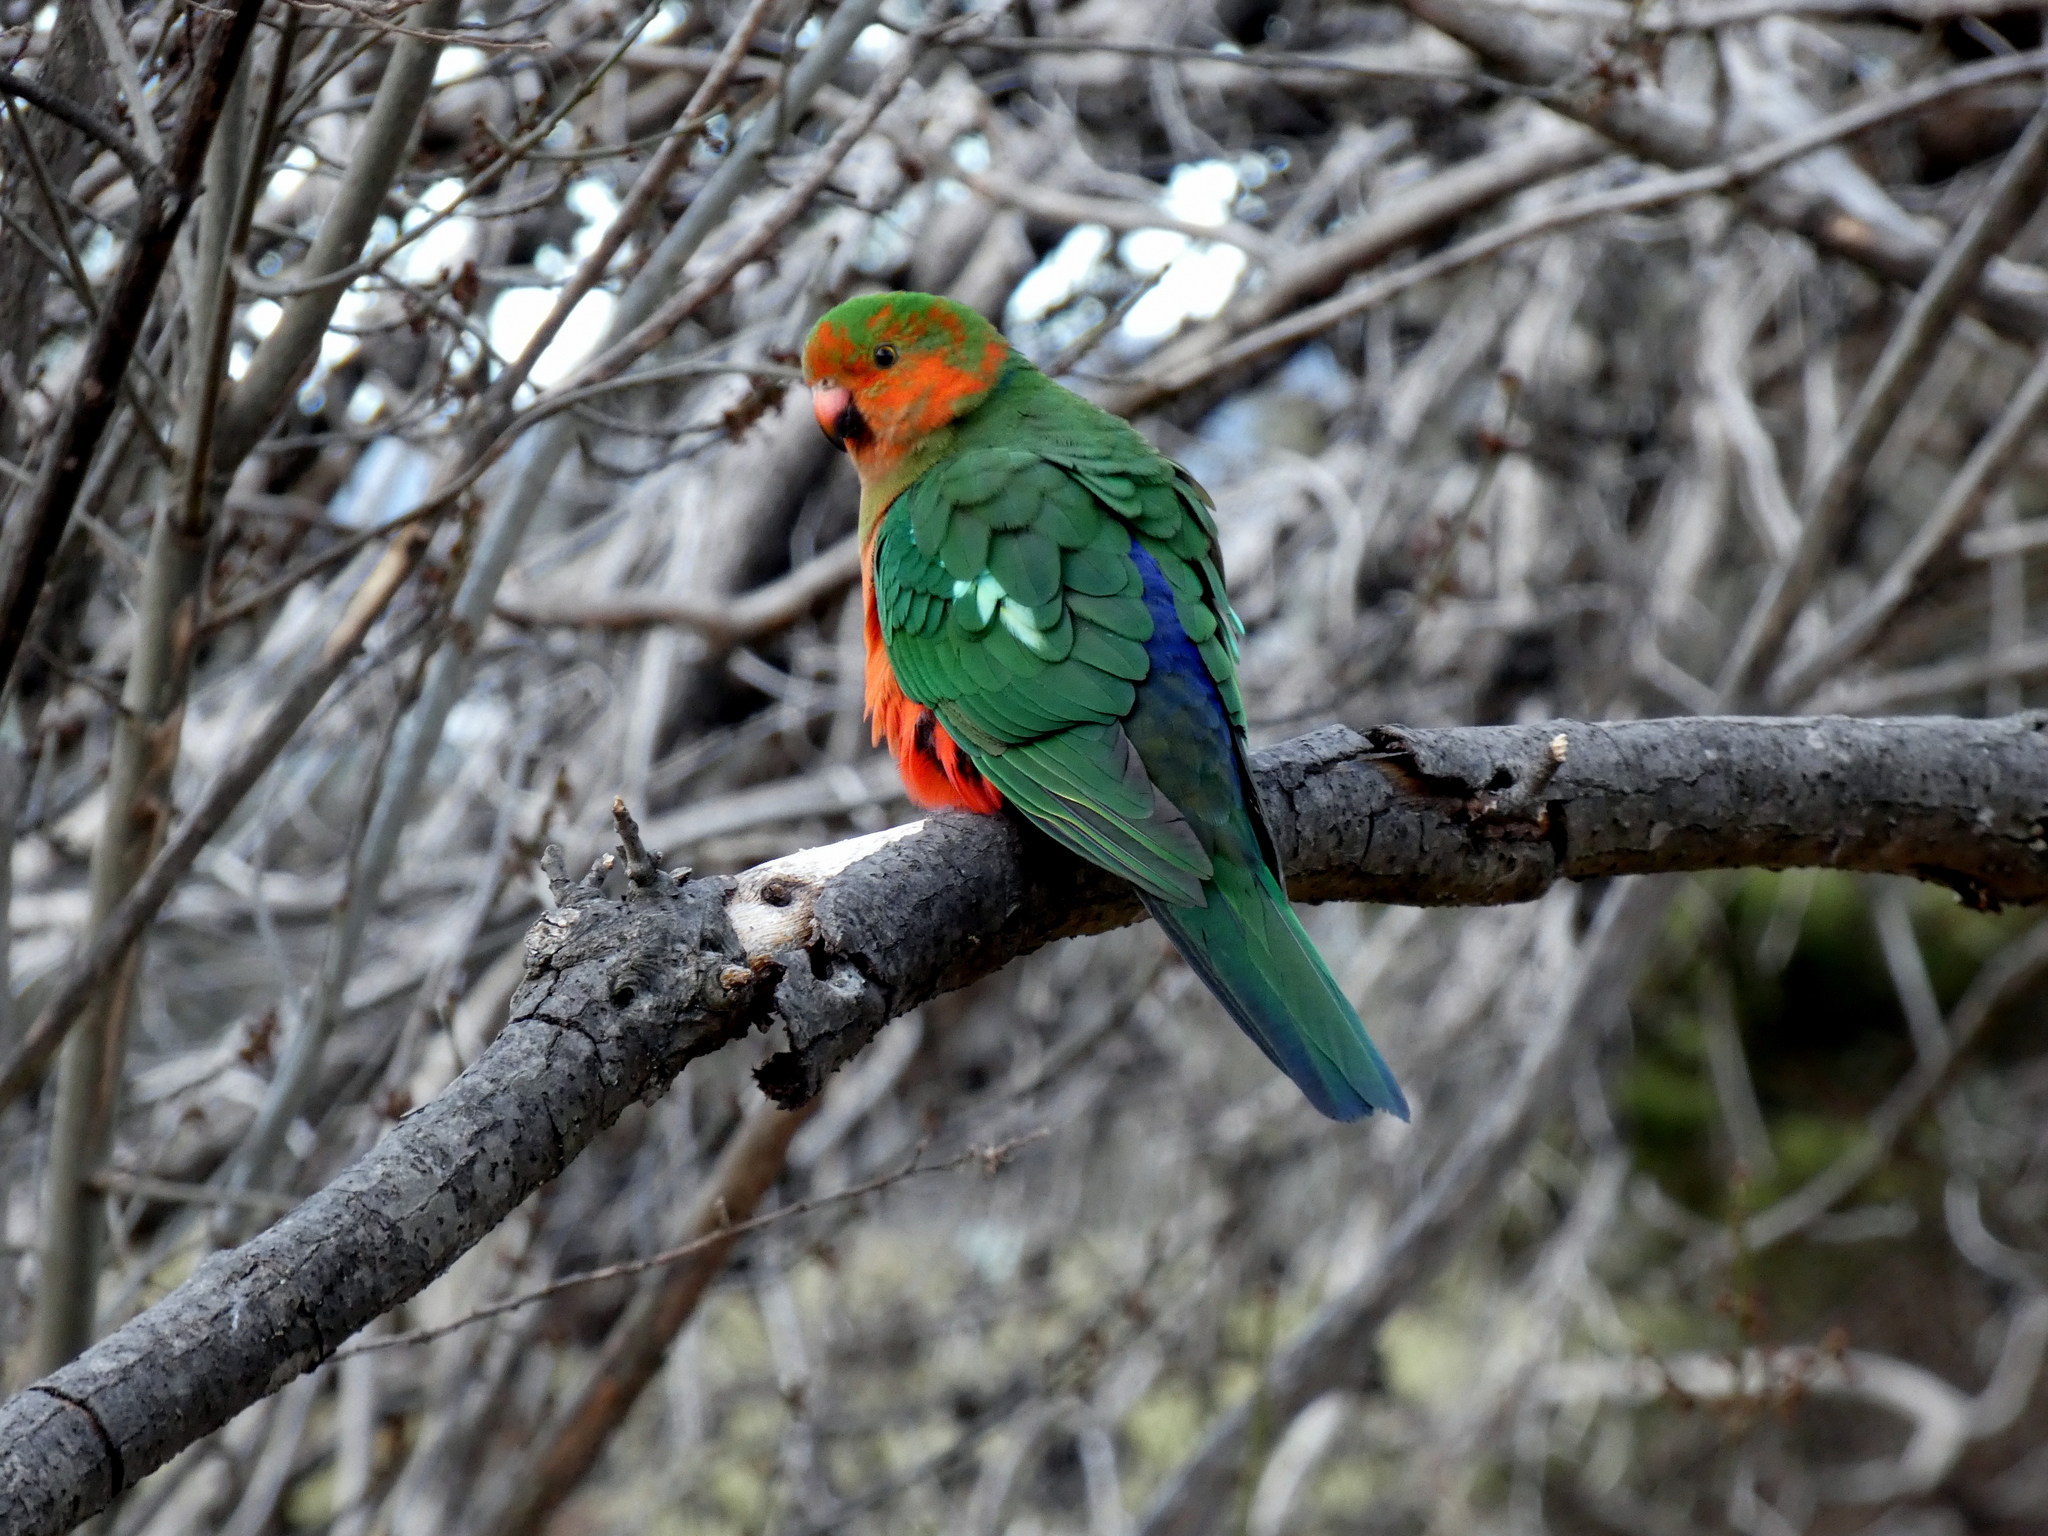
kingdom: Animalia
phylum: Chordata
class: Aves
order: Psittaciformes
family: Psittacidae
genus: Alisterus
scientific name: Alisterus scapularis
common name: Australian king parrot
